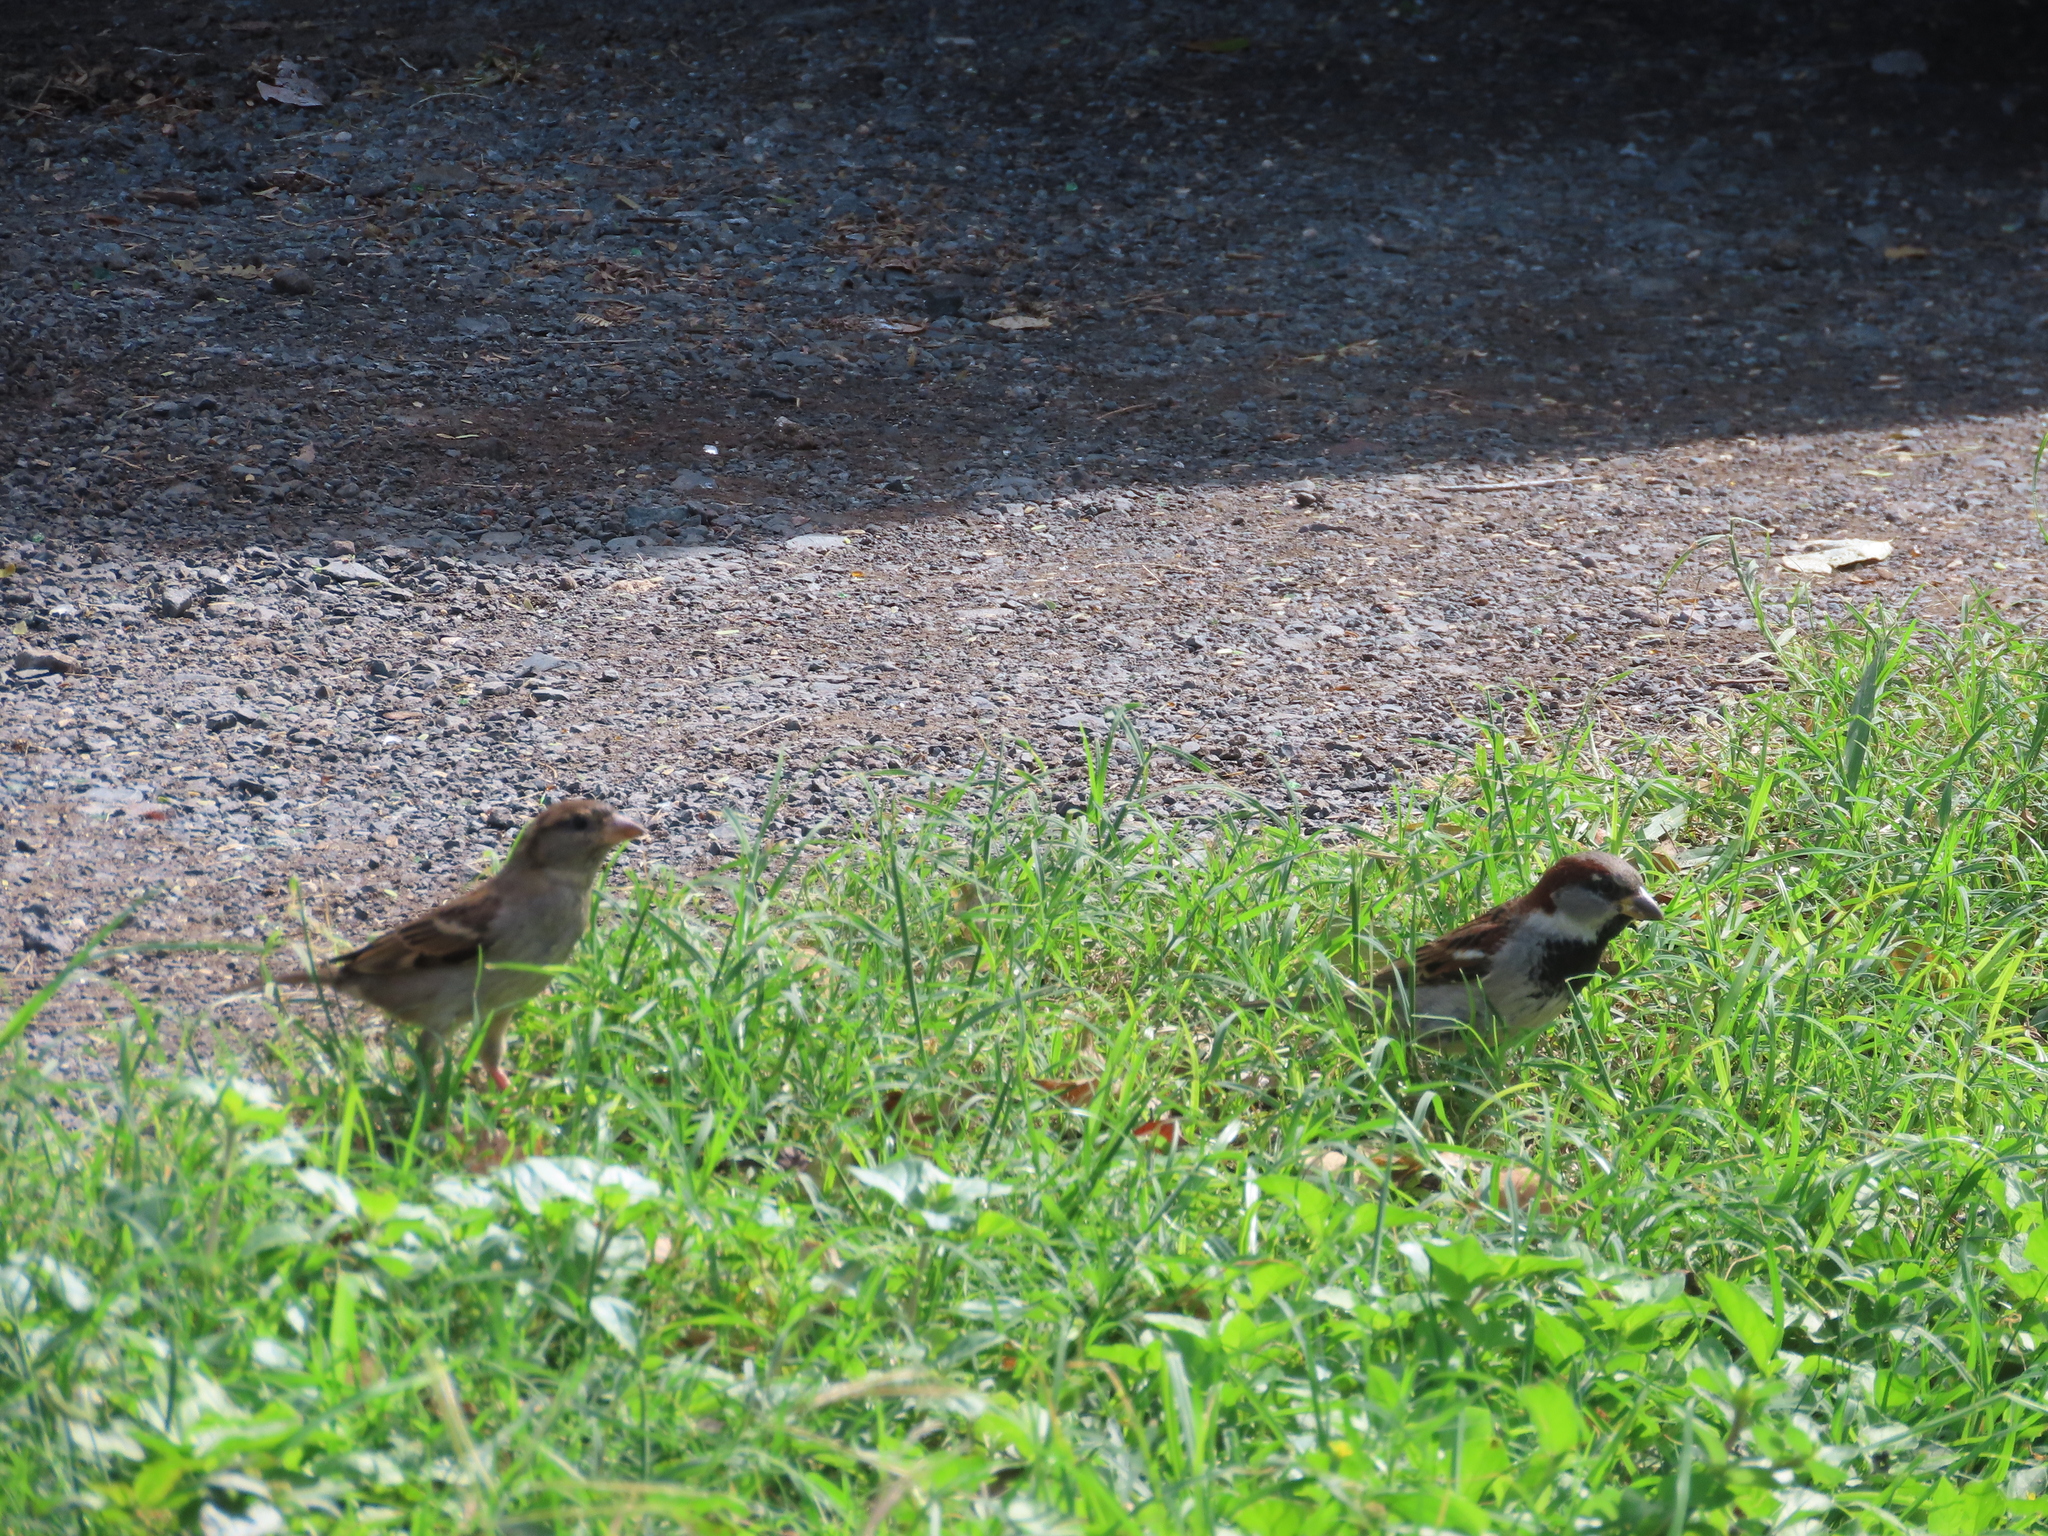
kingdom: Animalia
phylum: Chordata
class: Aves
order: Passeriformes
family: Passeridae
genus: Passer
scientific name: Passer domesticus
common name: House sparrow
